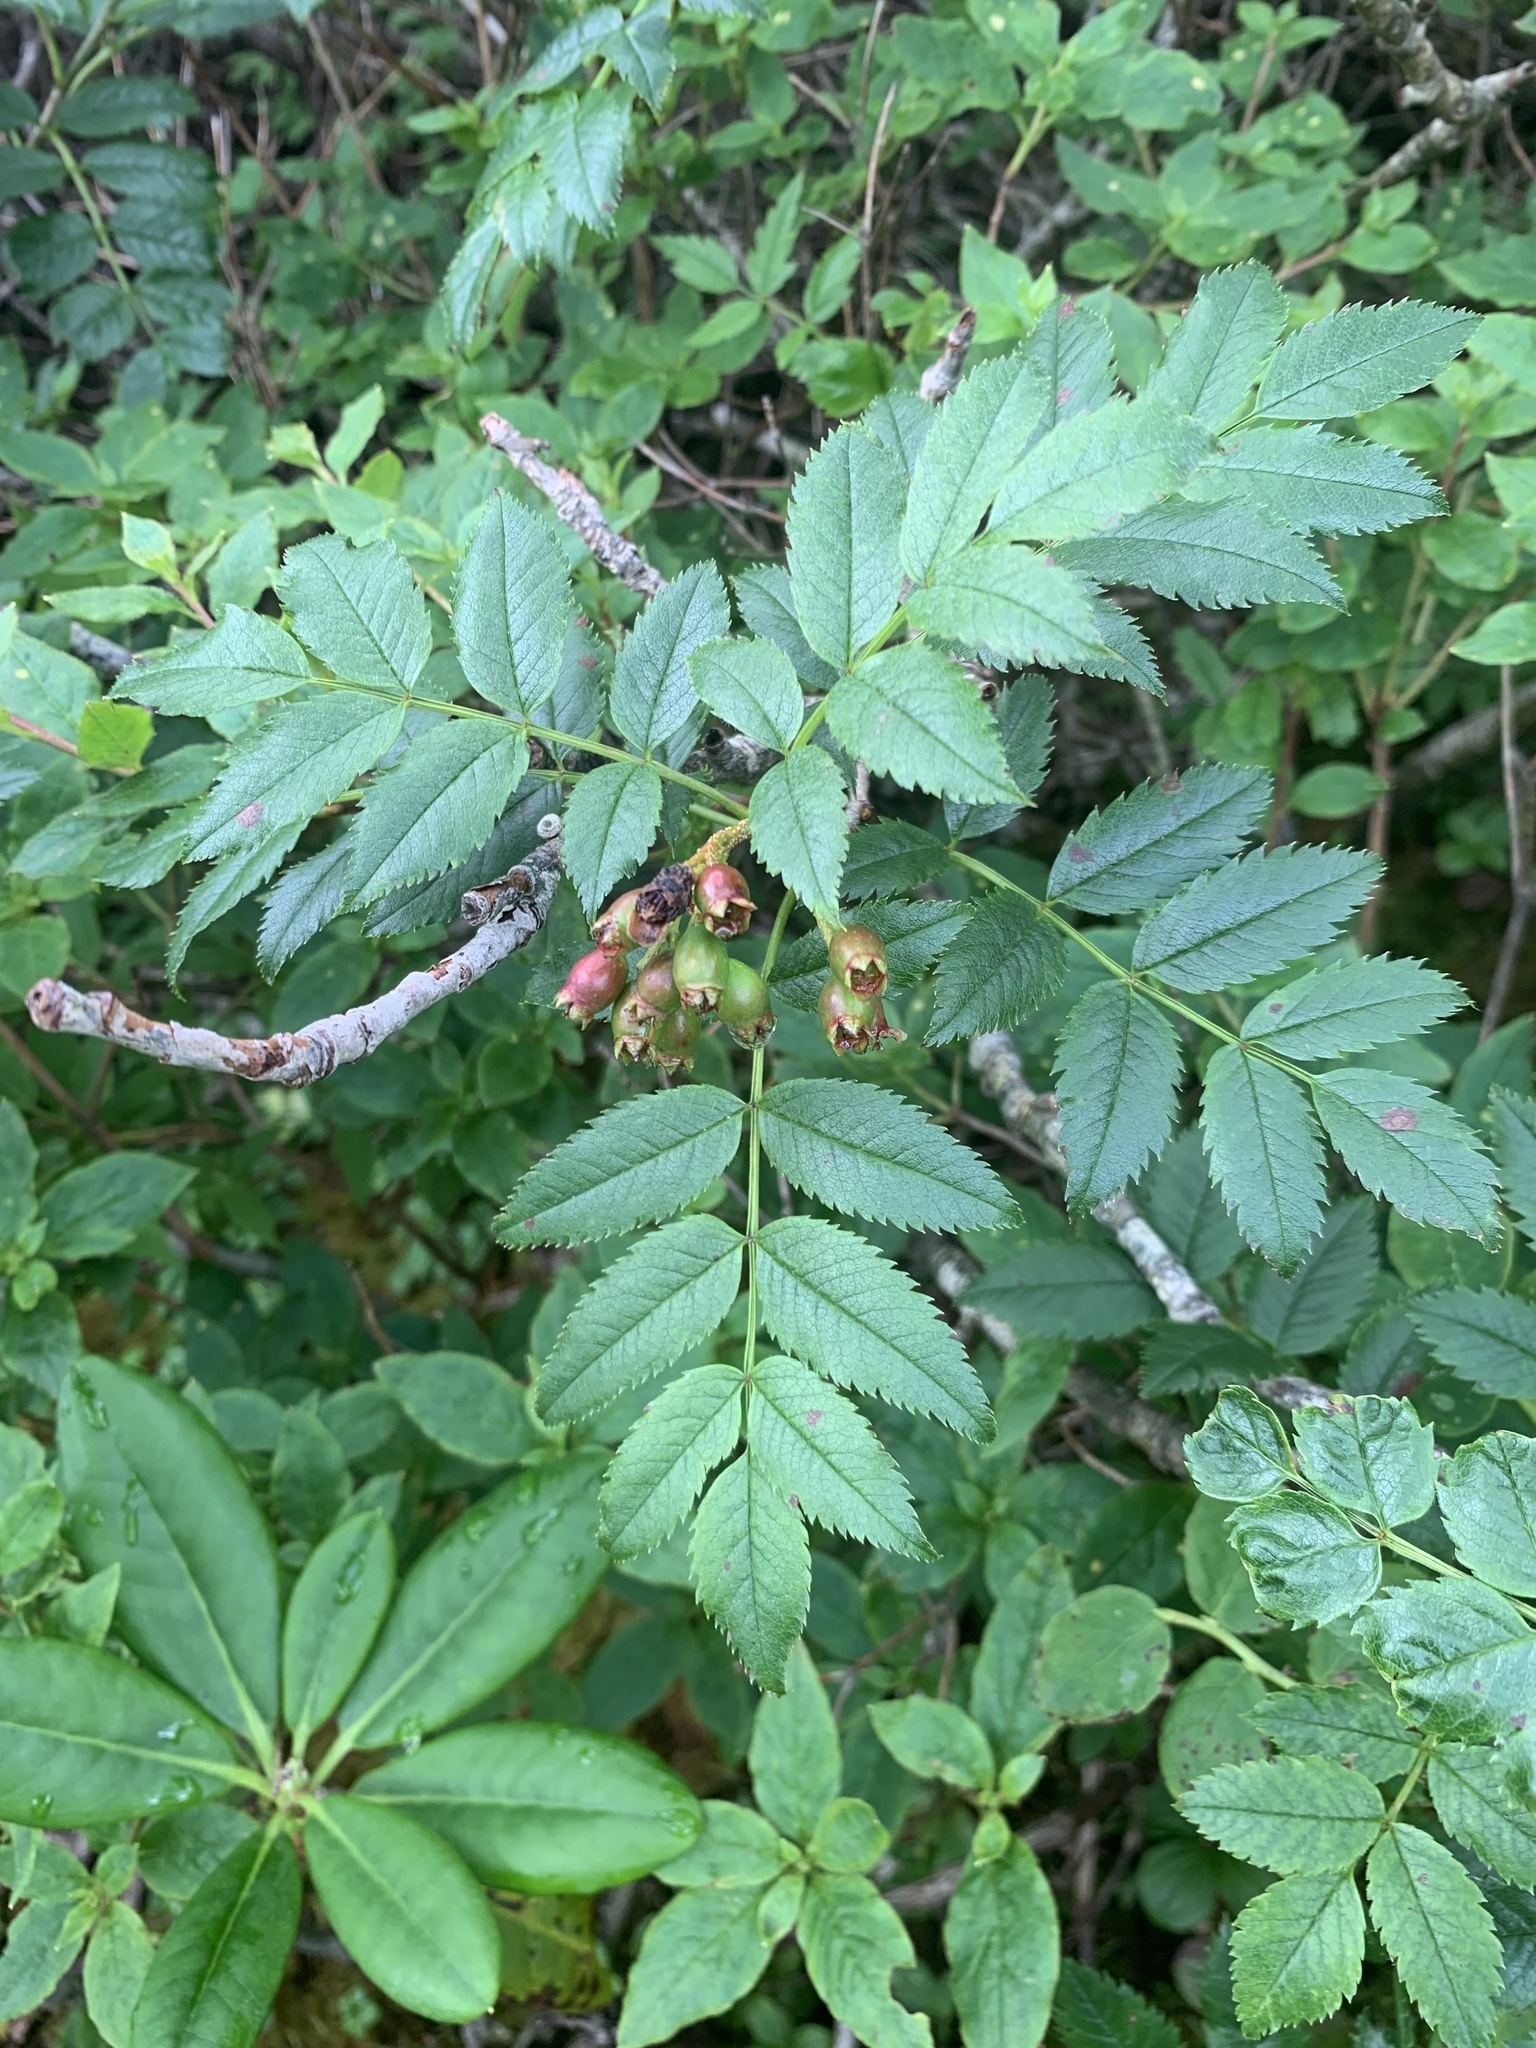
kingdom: Plantae
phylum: Tracheophyta
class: Magnoliopsida
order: Rosales
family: Rosaceae
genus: Sorbus
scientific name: Sorbus sambucifolia
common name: Siberian mountain-ash
